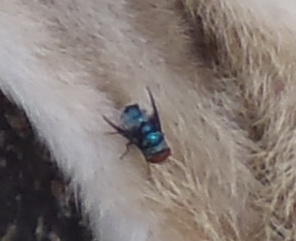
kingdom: Animalia
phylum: Arthropoda
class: Insecta
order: Diptera
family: Calliphoridae
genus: Chrysomya
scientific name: Chrysomya marginalis
